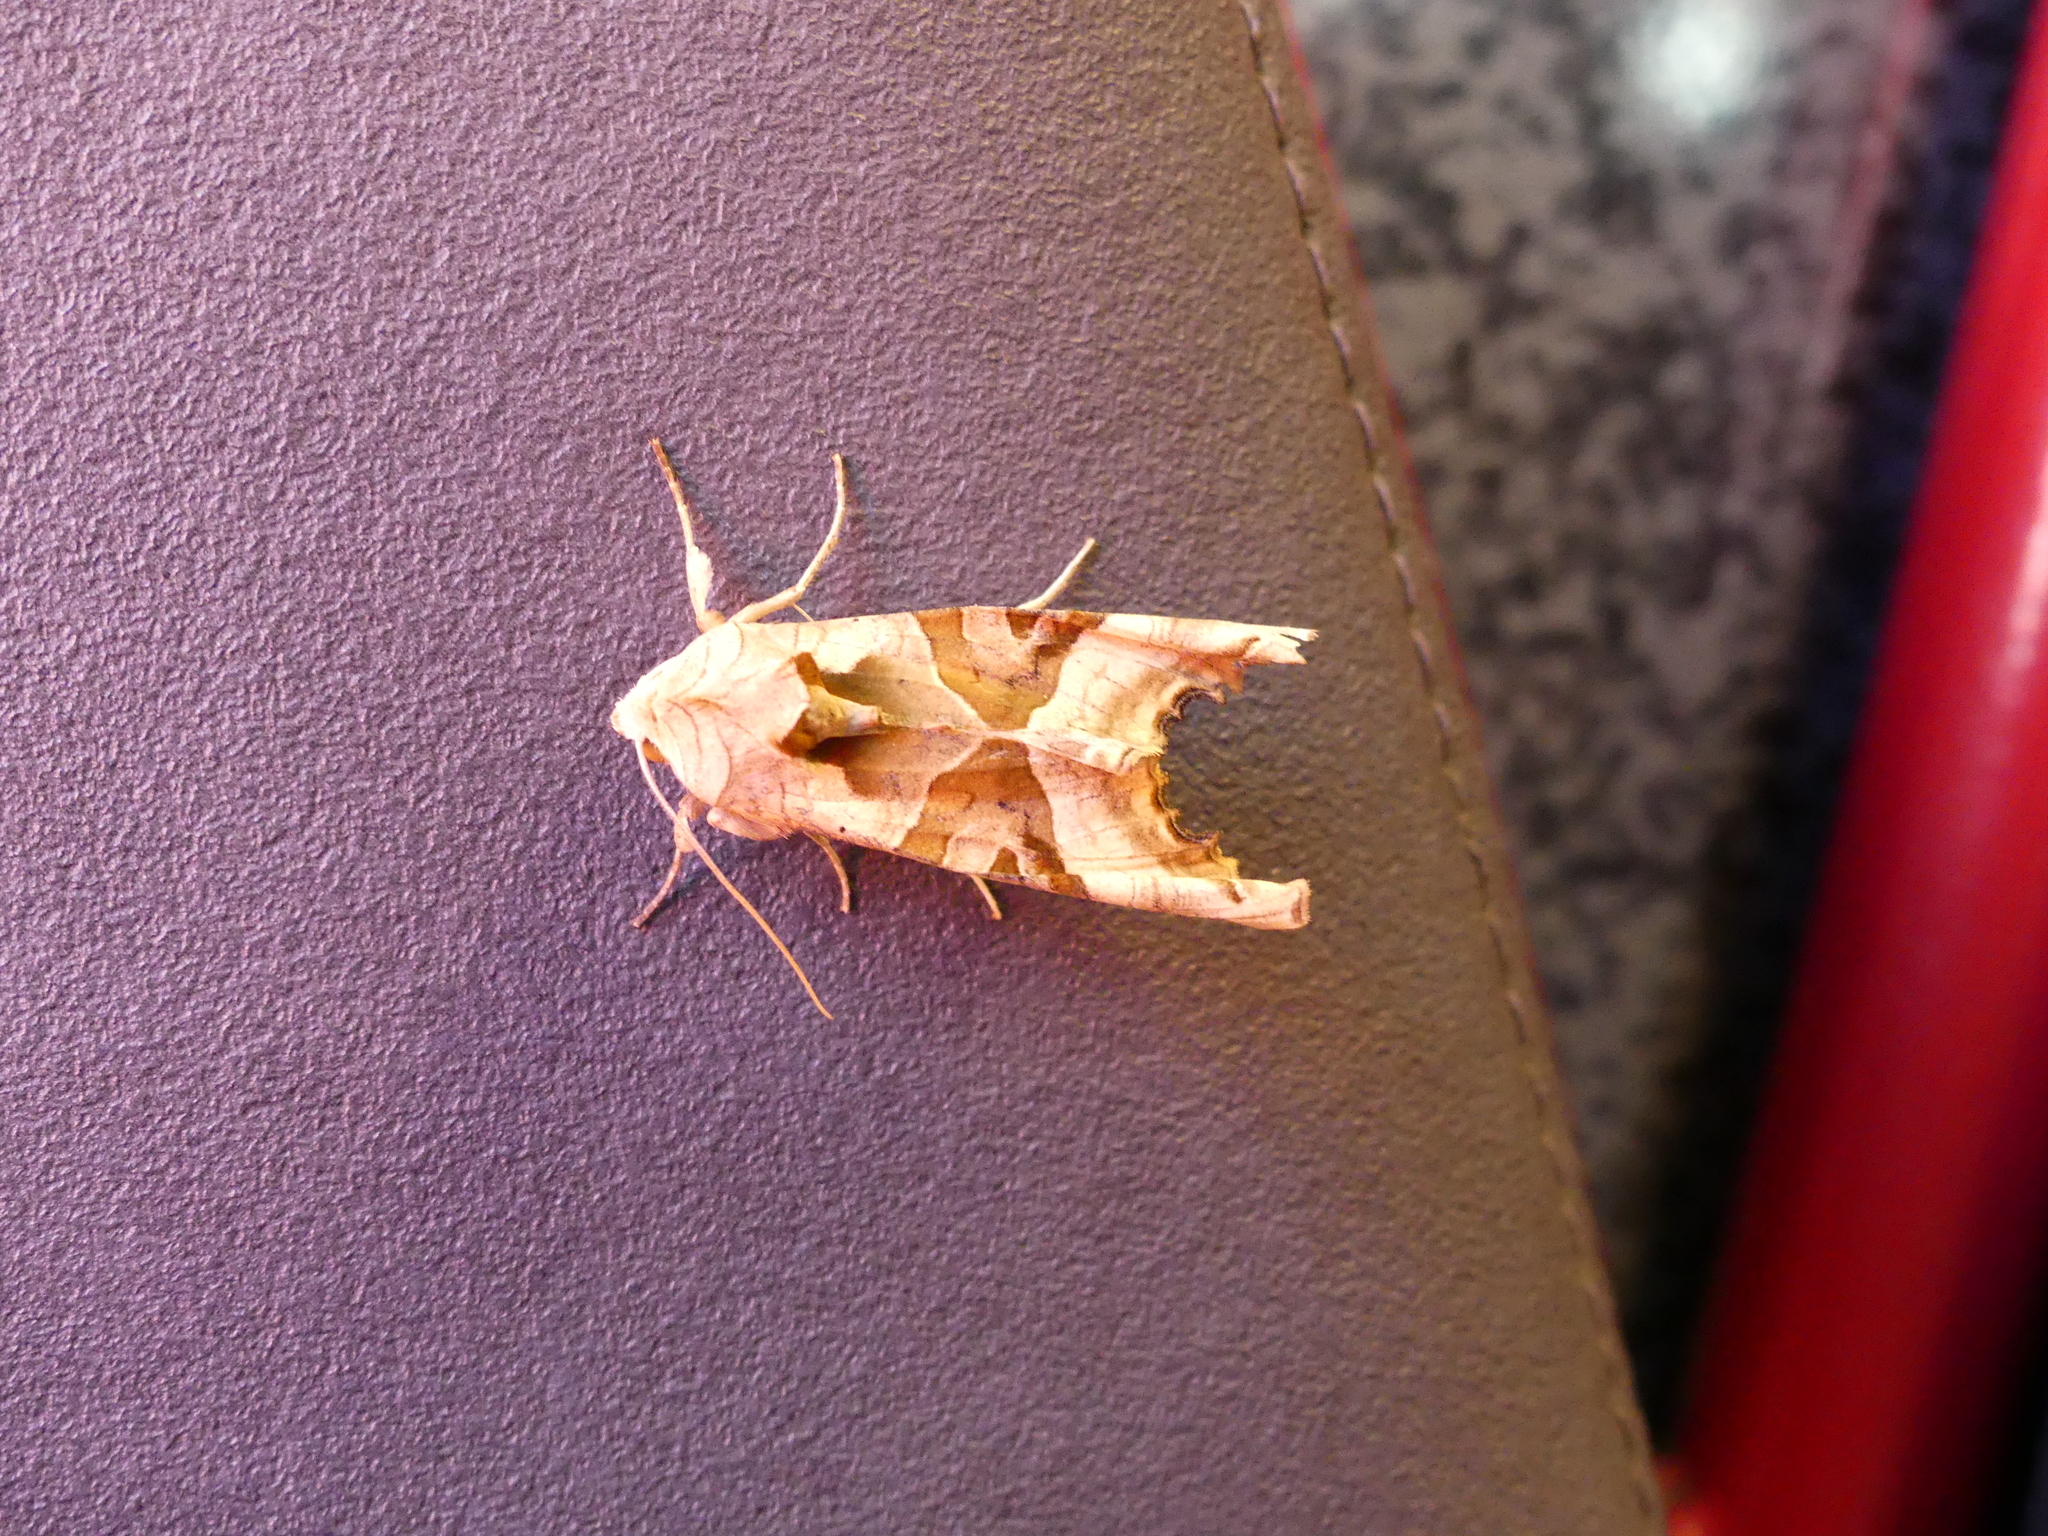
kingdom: Animalia
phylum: Arthropoda
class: Insecta
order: Lepidoptera
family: Noctuidae
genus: Phlogophora
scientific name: Phlogophora meticulosa
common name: Angle shades
